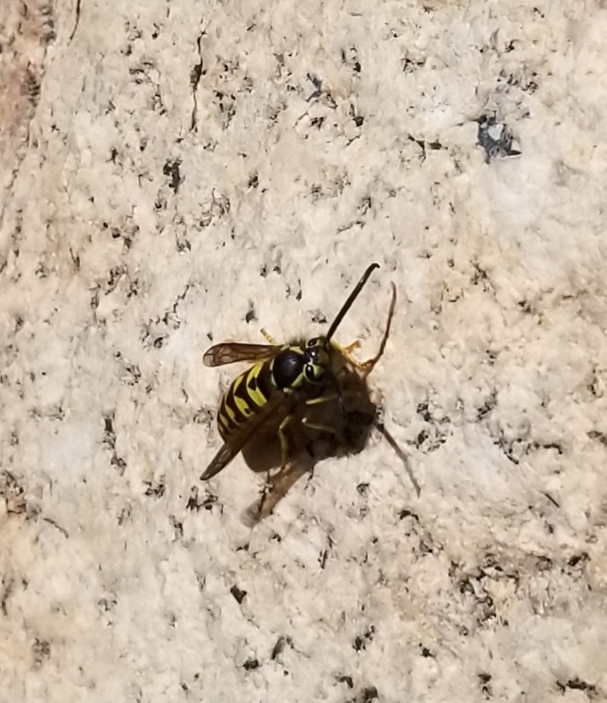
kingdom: Animalia
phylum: Arthropoda
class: Insecta
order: Hymenoptera
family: Vespidae
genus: Vespula
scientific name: Vespula pensylvanica
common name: Western yellowjacket
